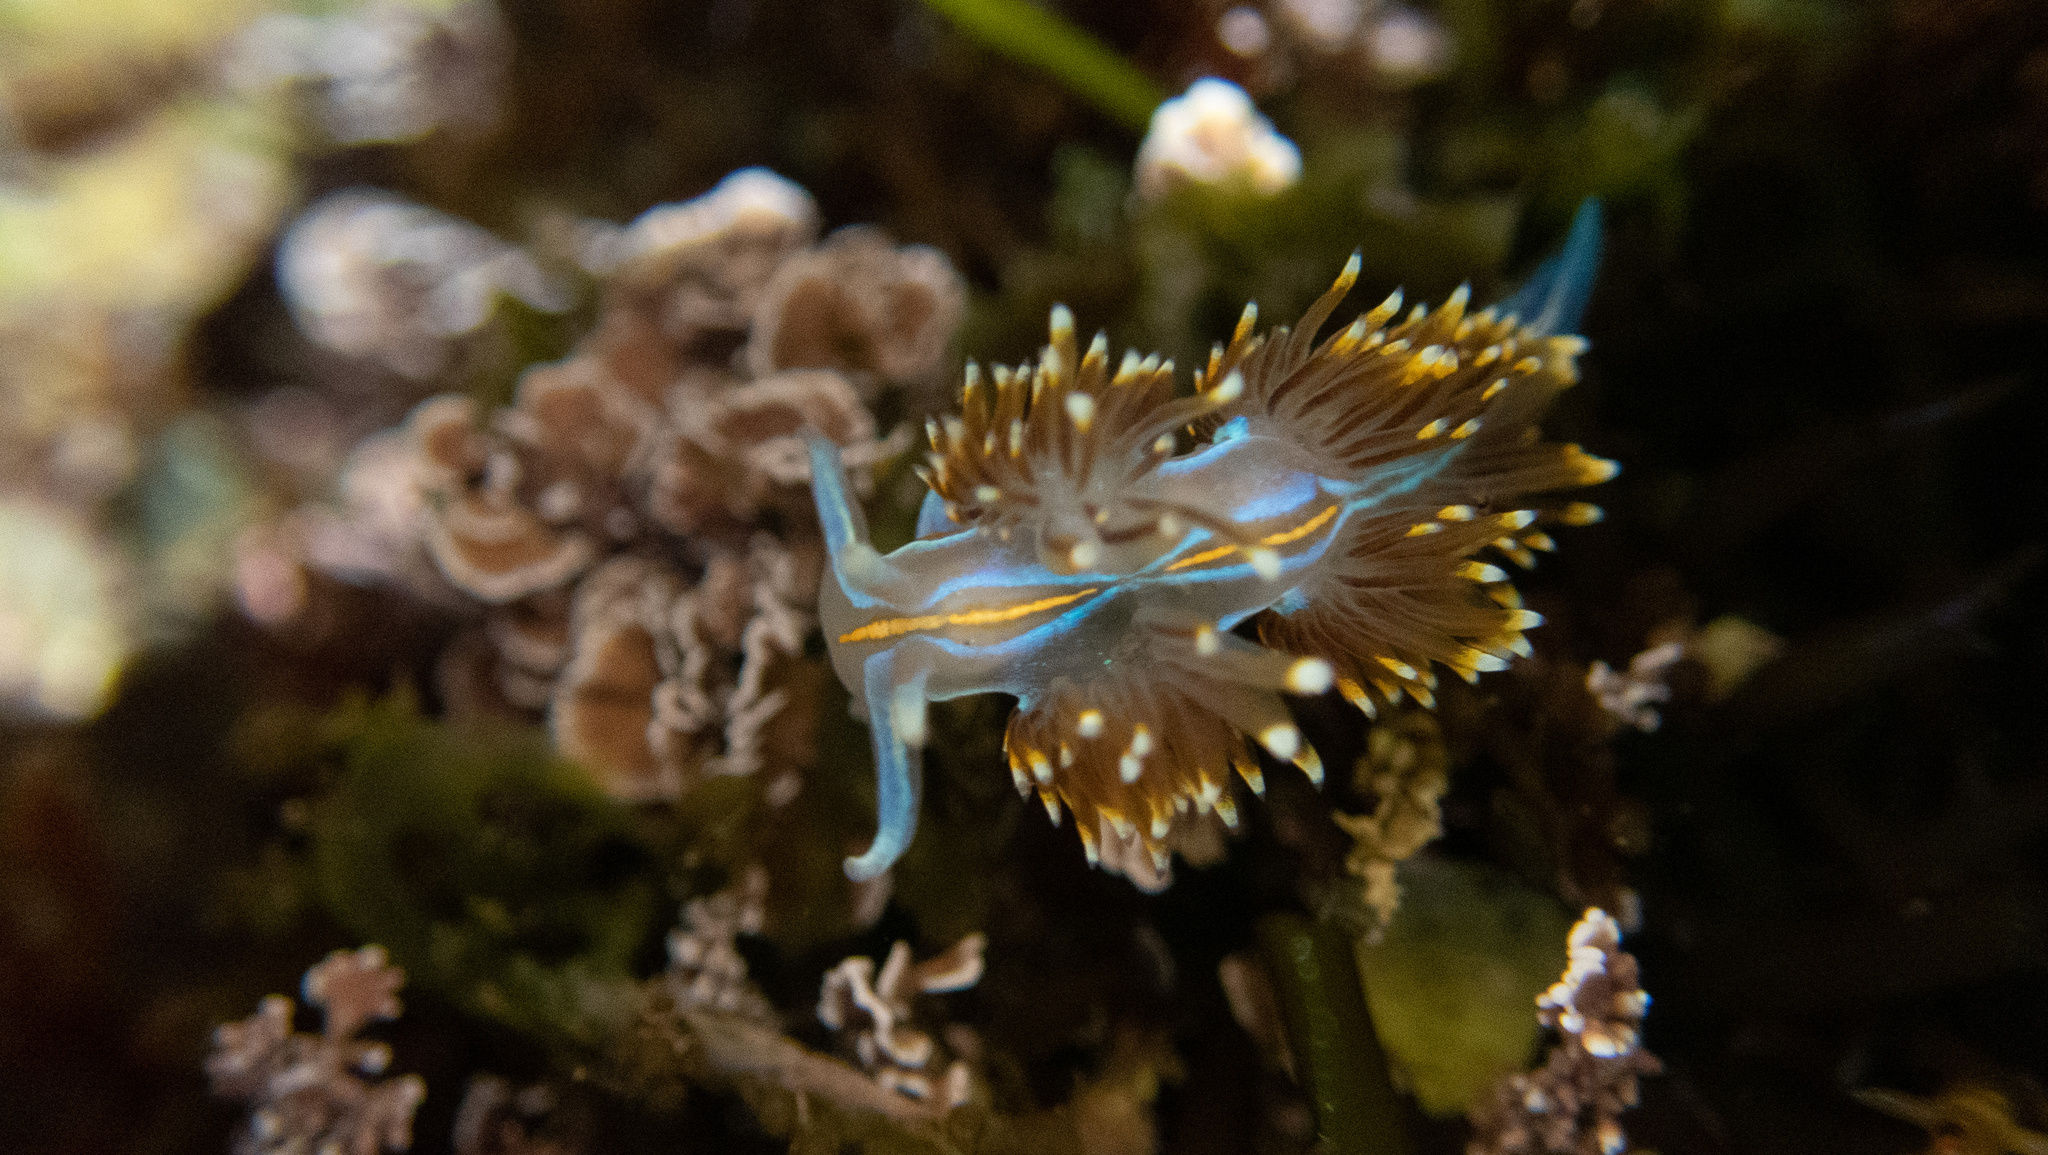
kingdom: Animalia
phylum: Mollusca
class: Gastropoda
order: Nudibranchia
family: Myrrhinidae
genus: Hermissenda
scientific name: Hermissenda opalescens
